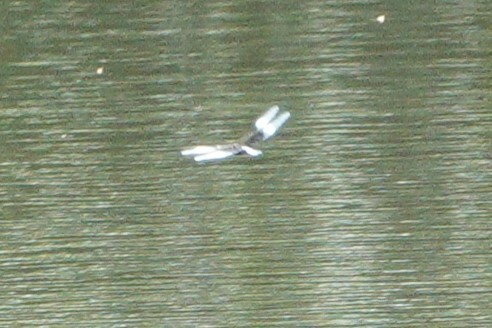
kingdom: Animalia
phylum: Arthropoda
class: Insecta
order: Odonata
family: Libellulidae
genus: Libellula
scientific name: Libellula luctuosa
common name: Widow skimmer
